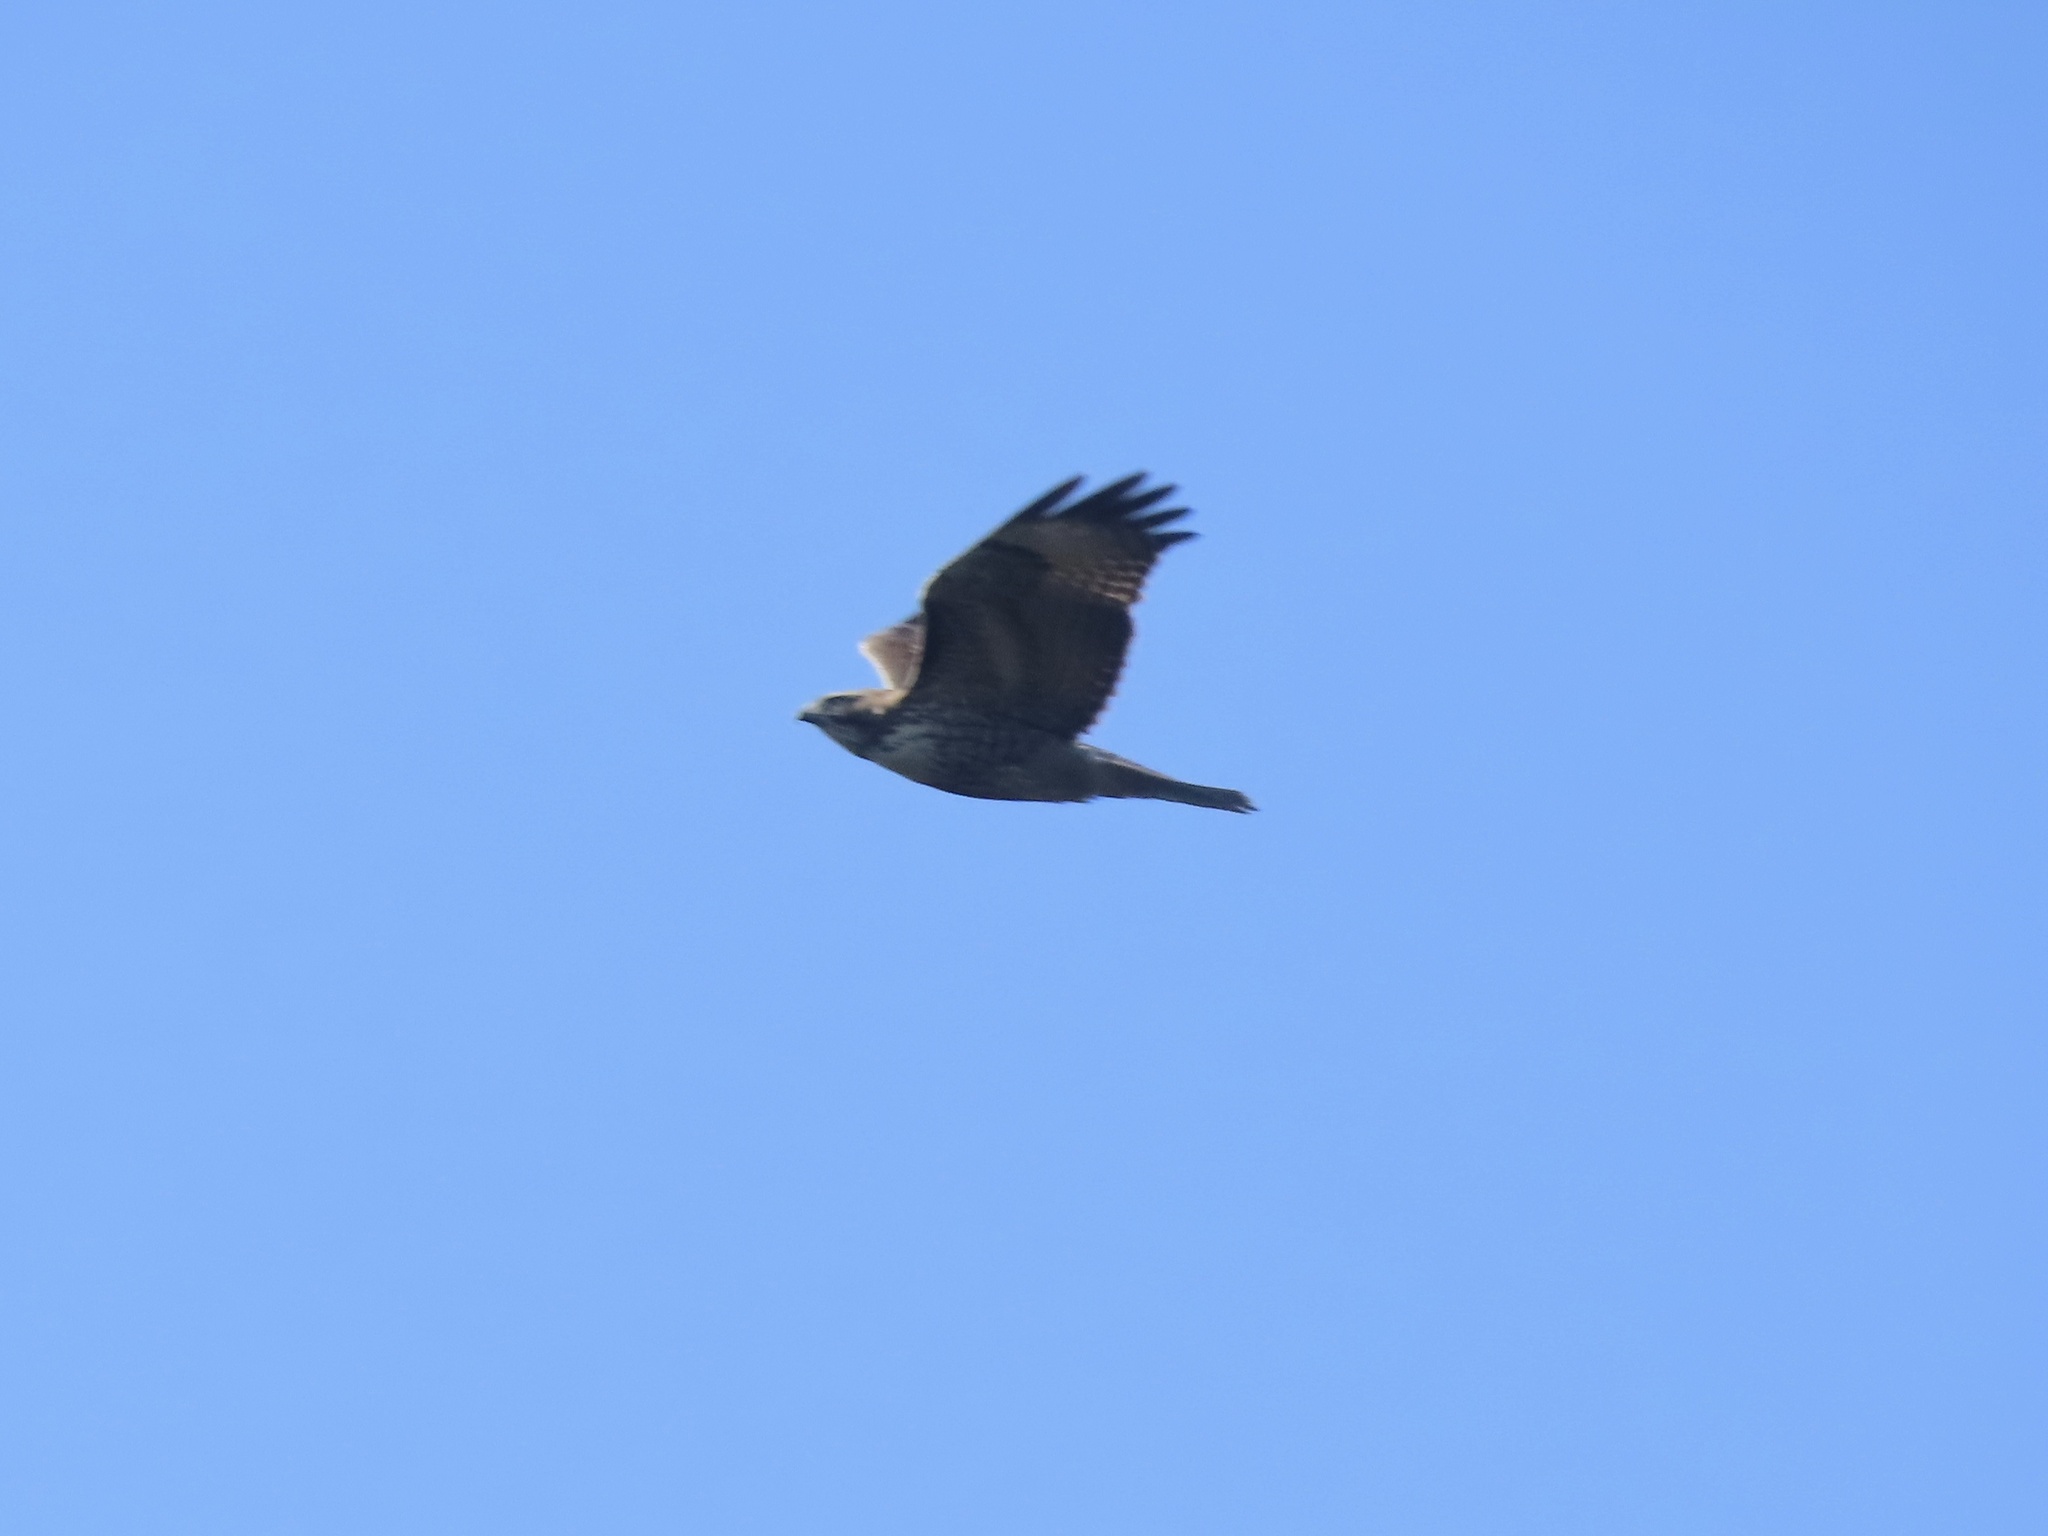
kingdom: Animalia
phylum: Chordata
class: Aves
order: Accipitriformes
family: Accipitridae
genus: Buteo
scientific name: Buteo jamaicensis
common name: Red-tailed hawk
